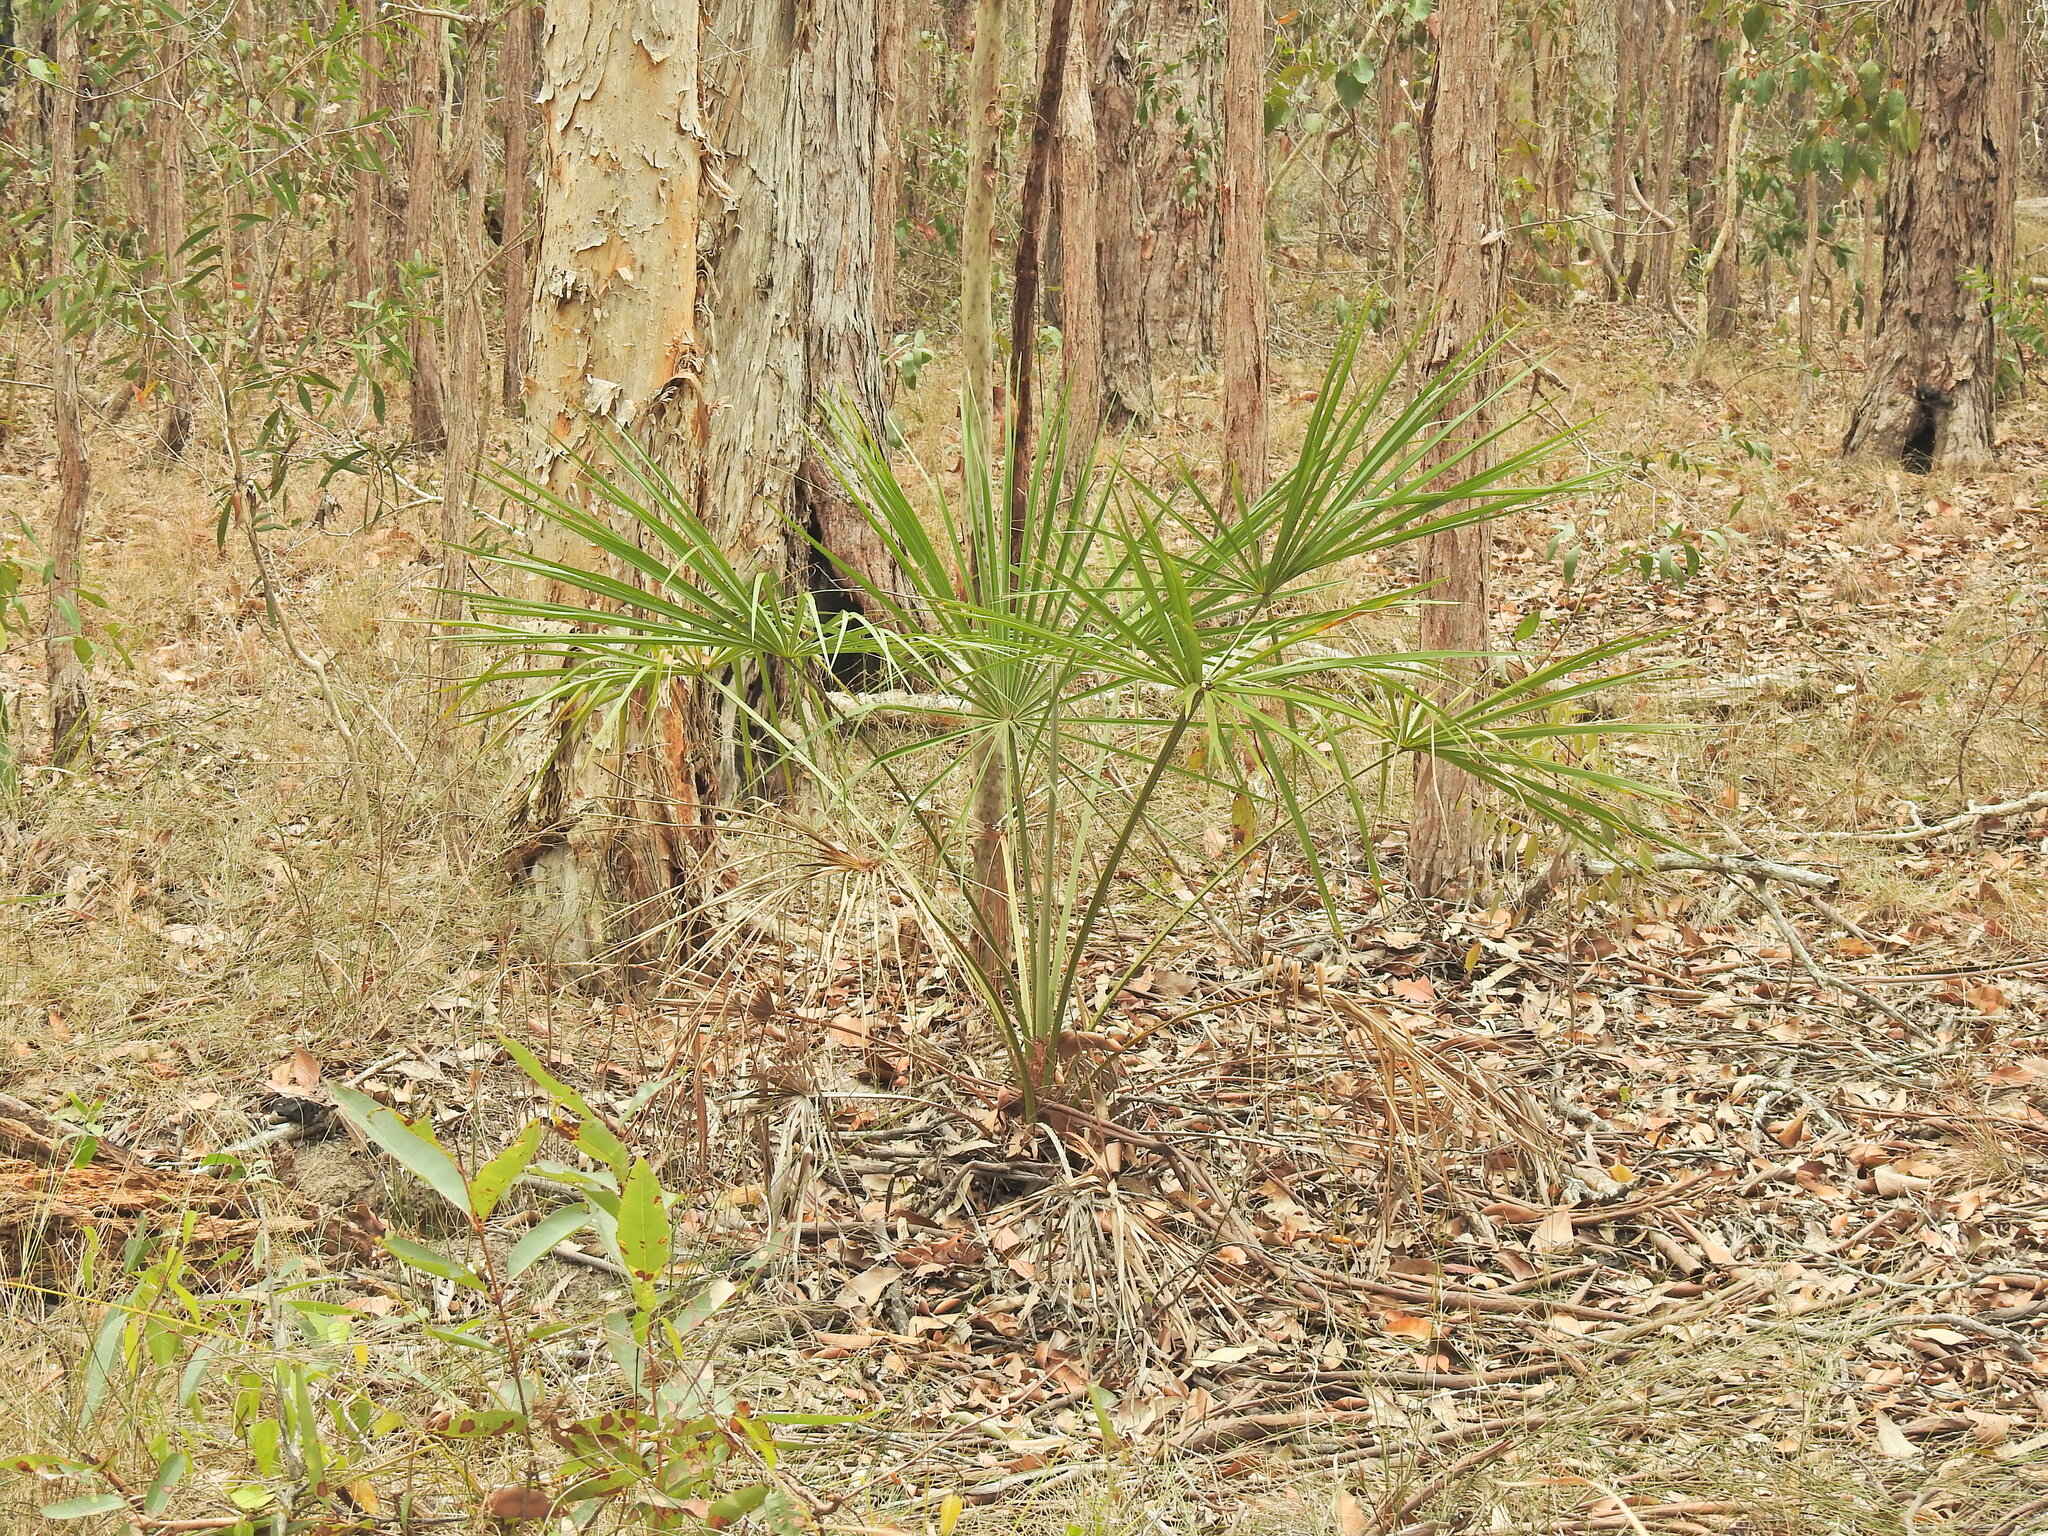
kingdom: Plantae
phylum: Tracheophyta
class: Liliopsida
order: Arecales
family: Arecaceae
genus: Livistona
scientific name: Livistona decora
